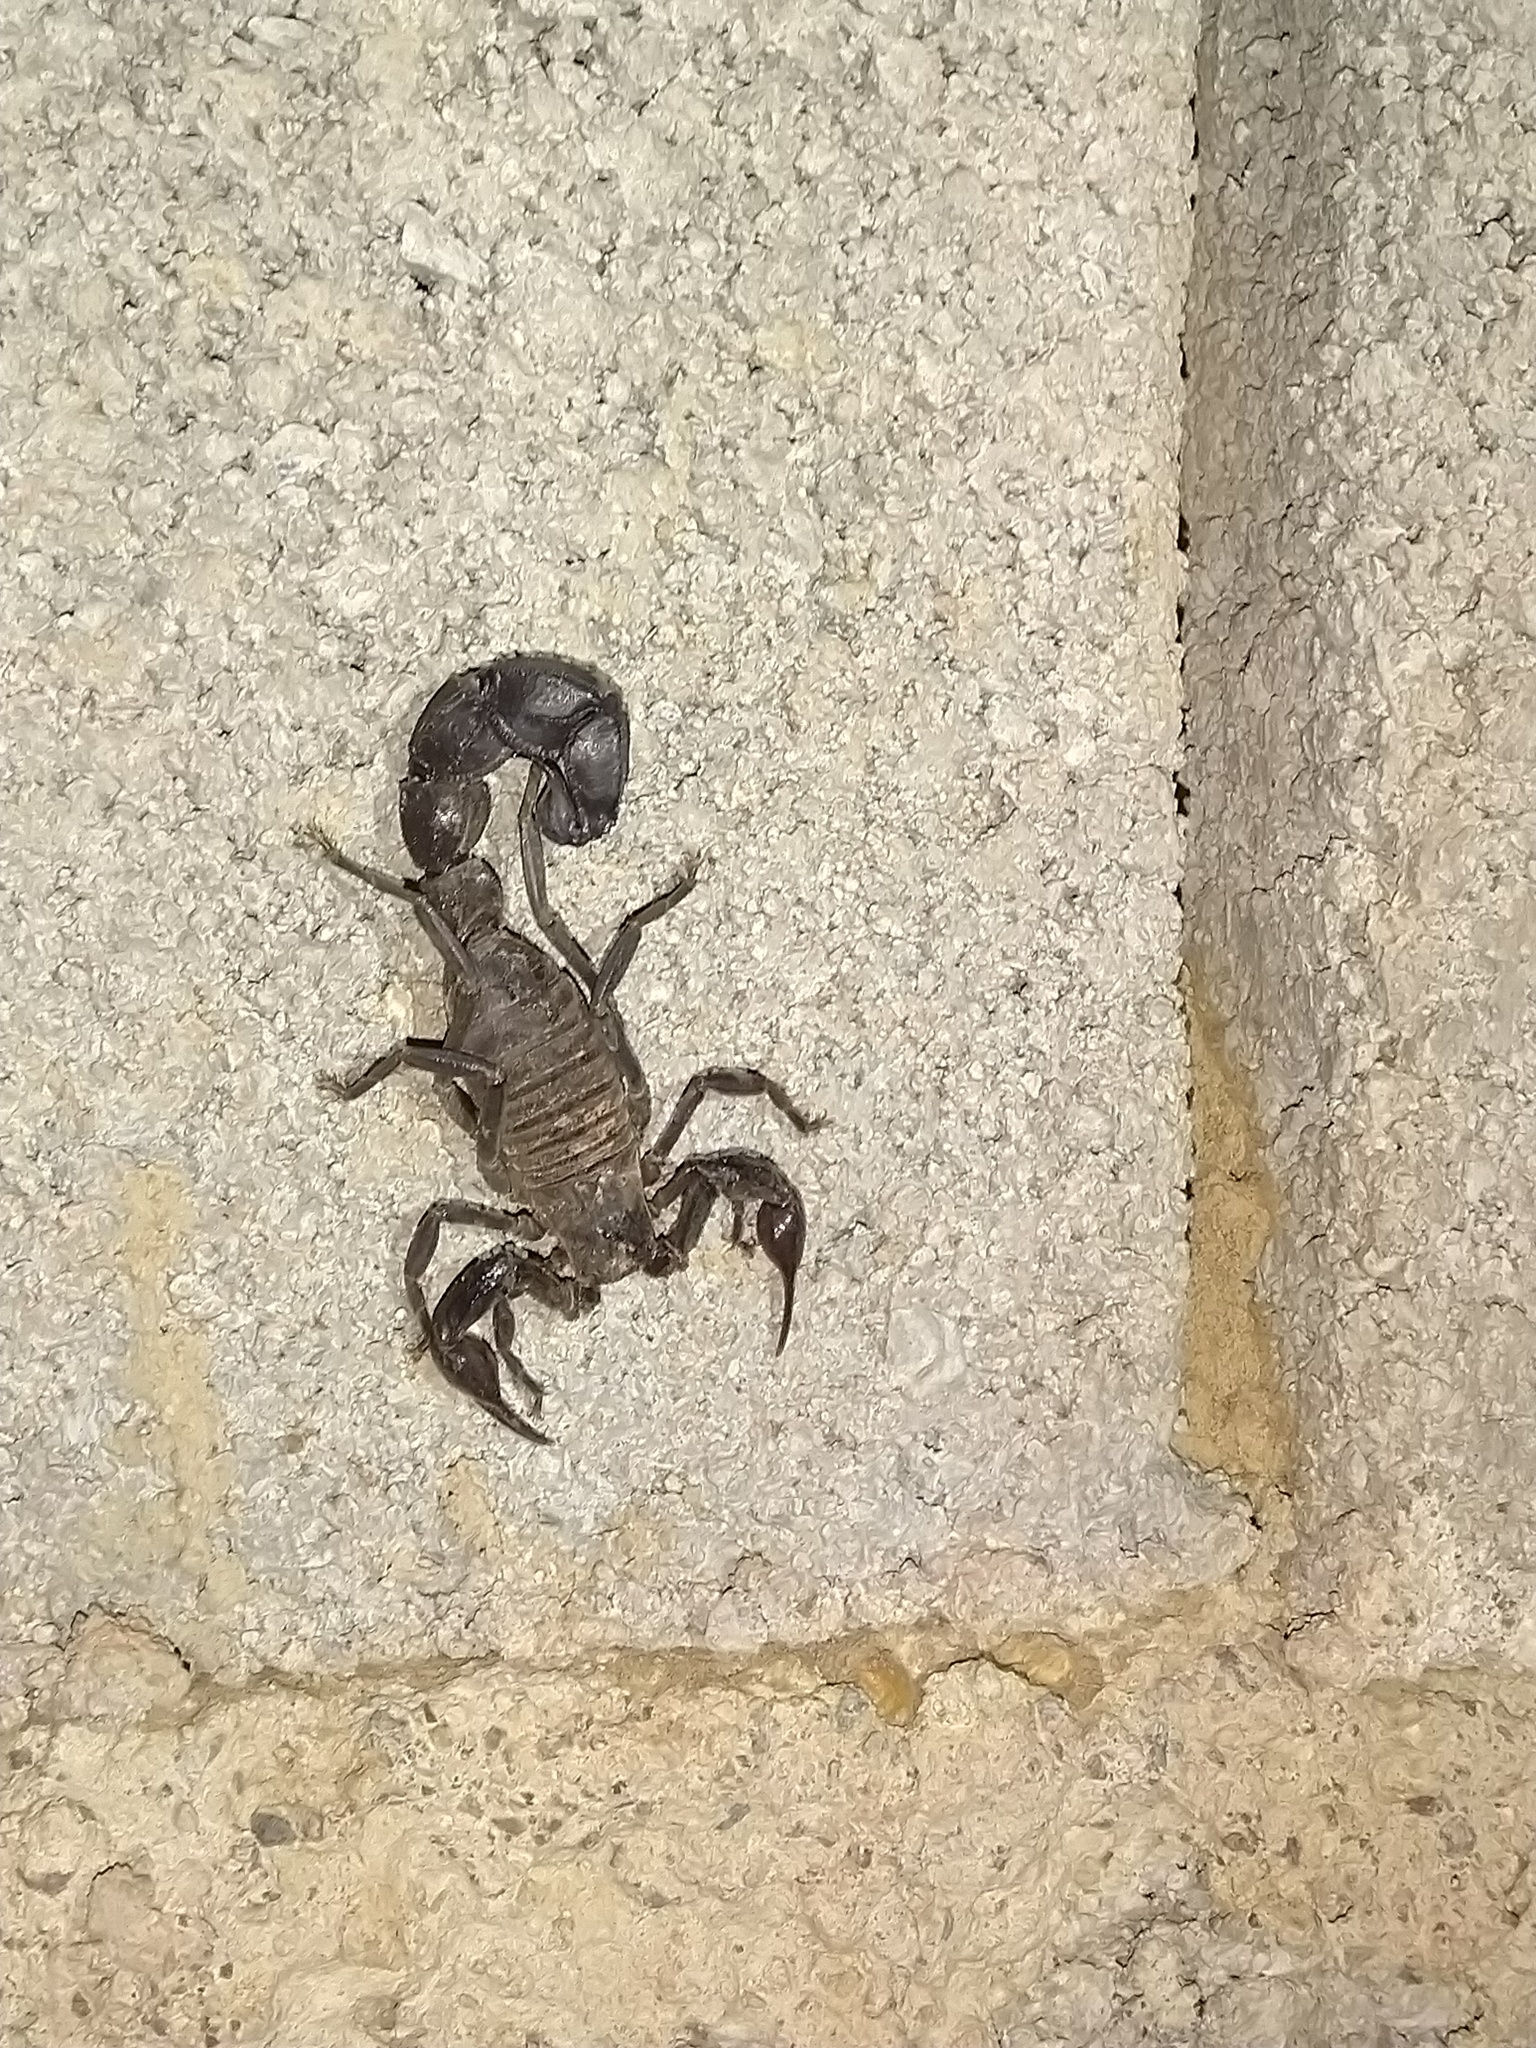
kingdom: Animalia
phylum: Arthropoda
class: Arachnida
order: Scorpiones
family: Buthidae
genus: Androctonus
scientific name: Androctonus crassicauda
